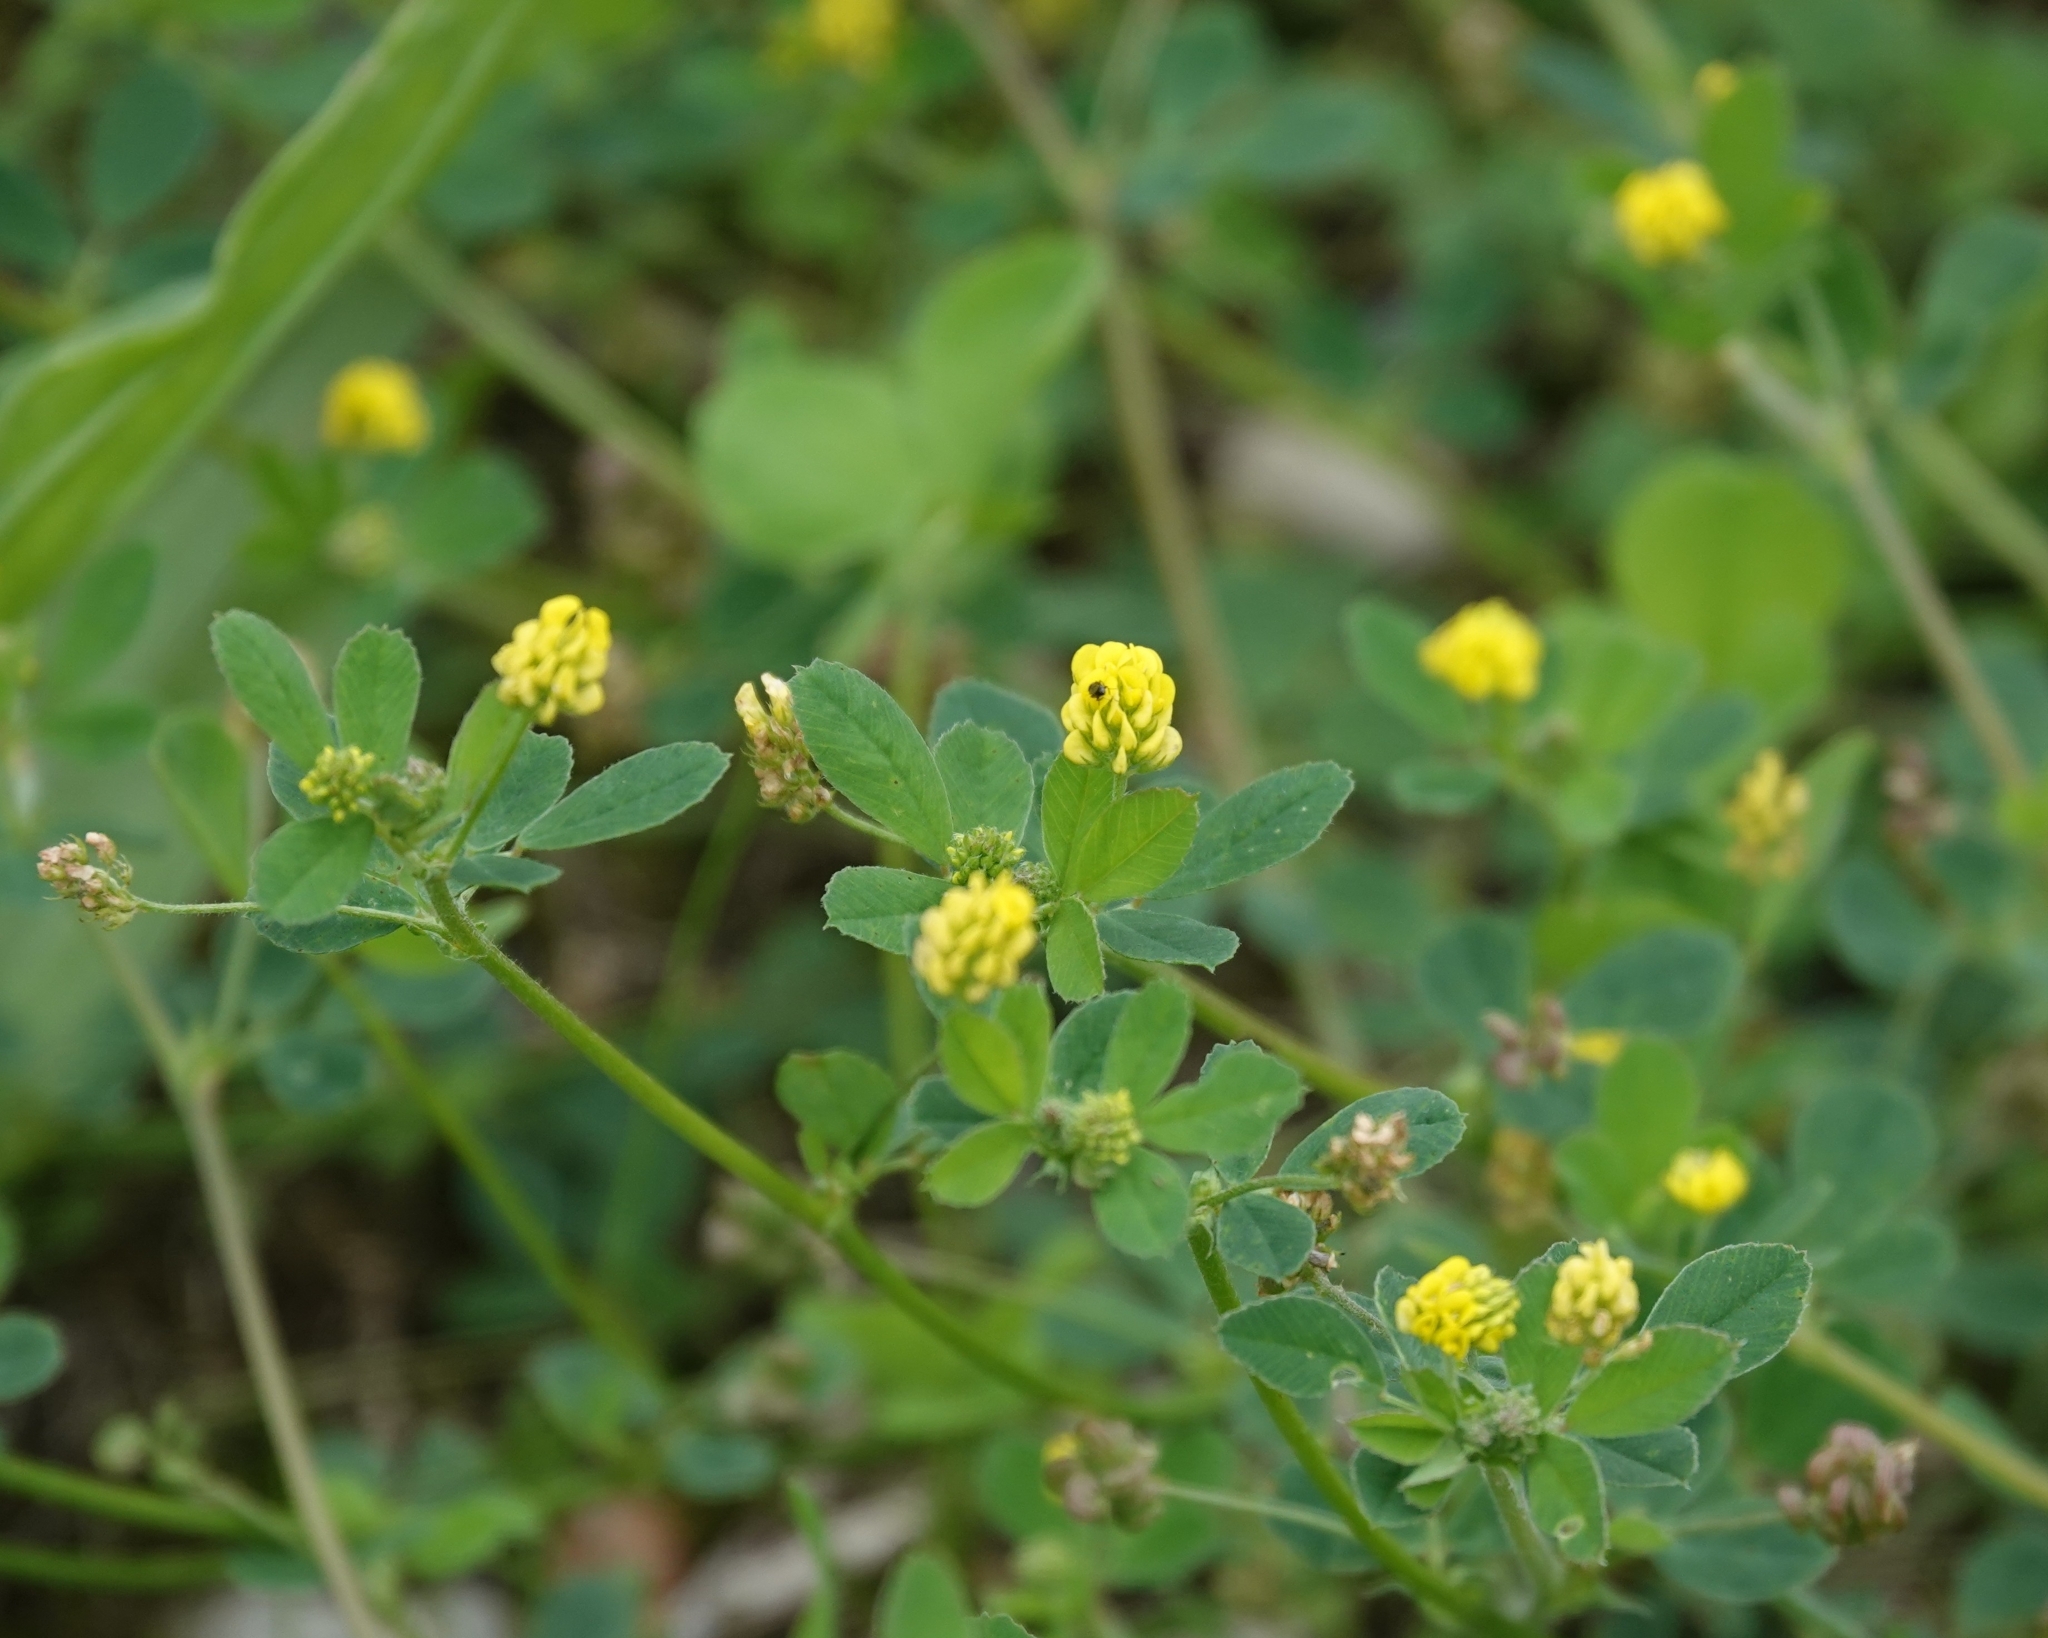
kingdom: Plantae
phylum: Tracheophyta
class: Magnoliopsida
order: Fabales
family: Fabaceae
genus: Medicago
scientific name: Medicago lupulina
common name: Black medick
